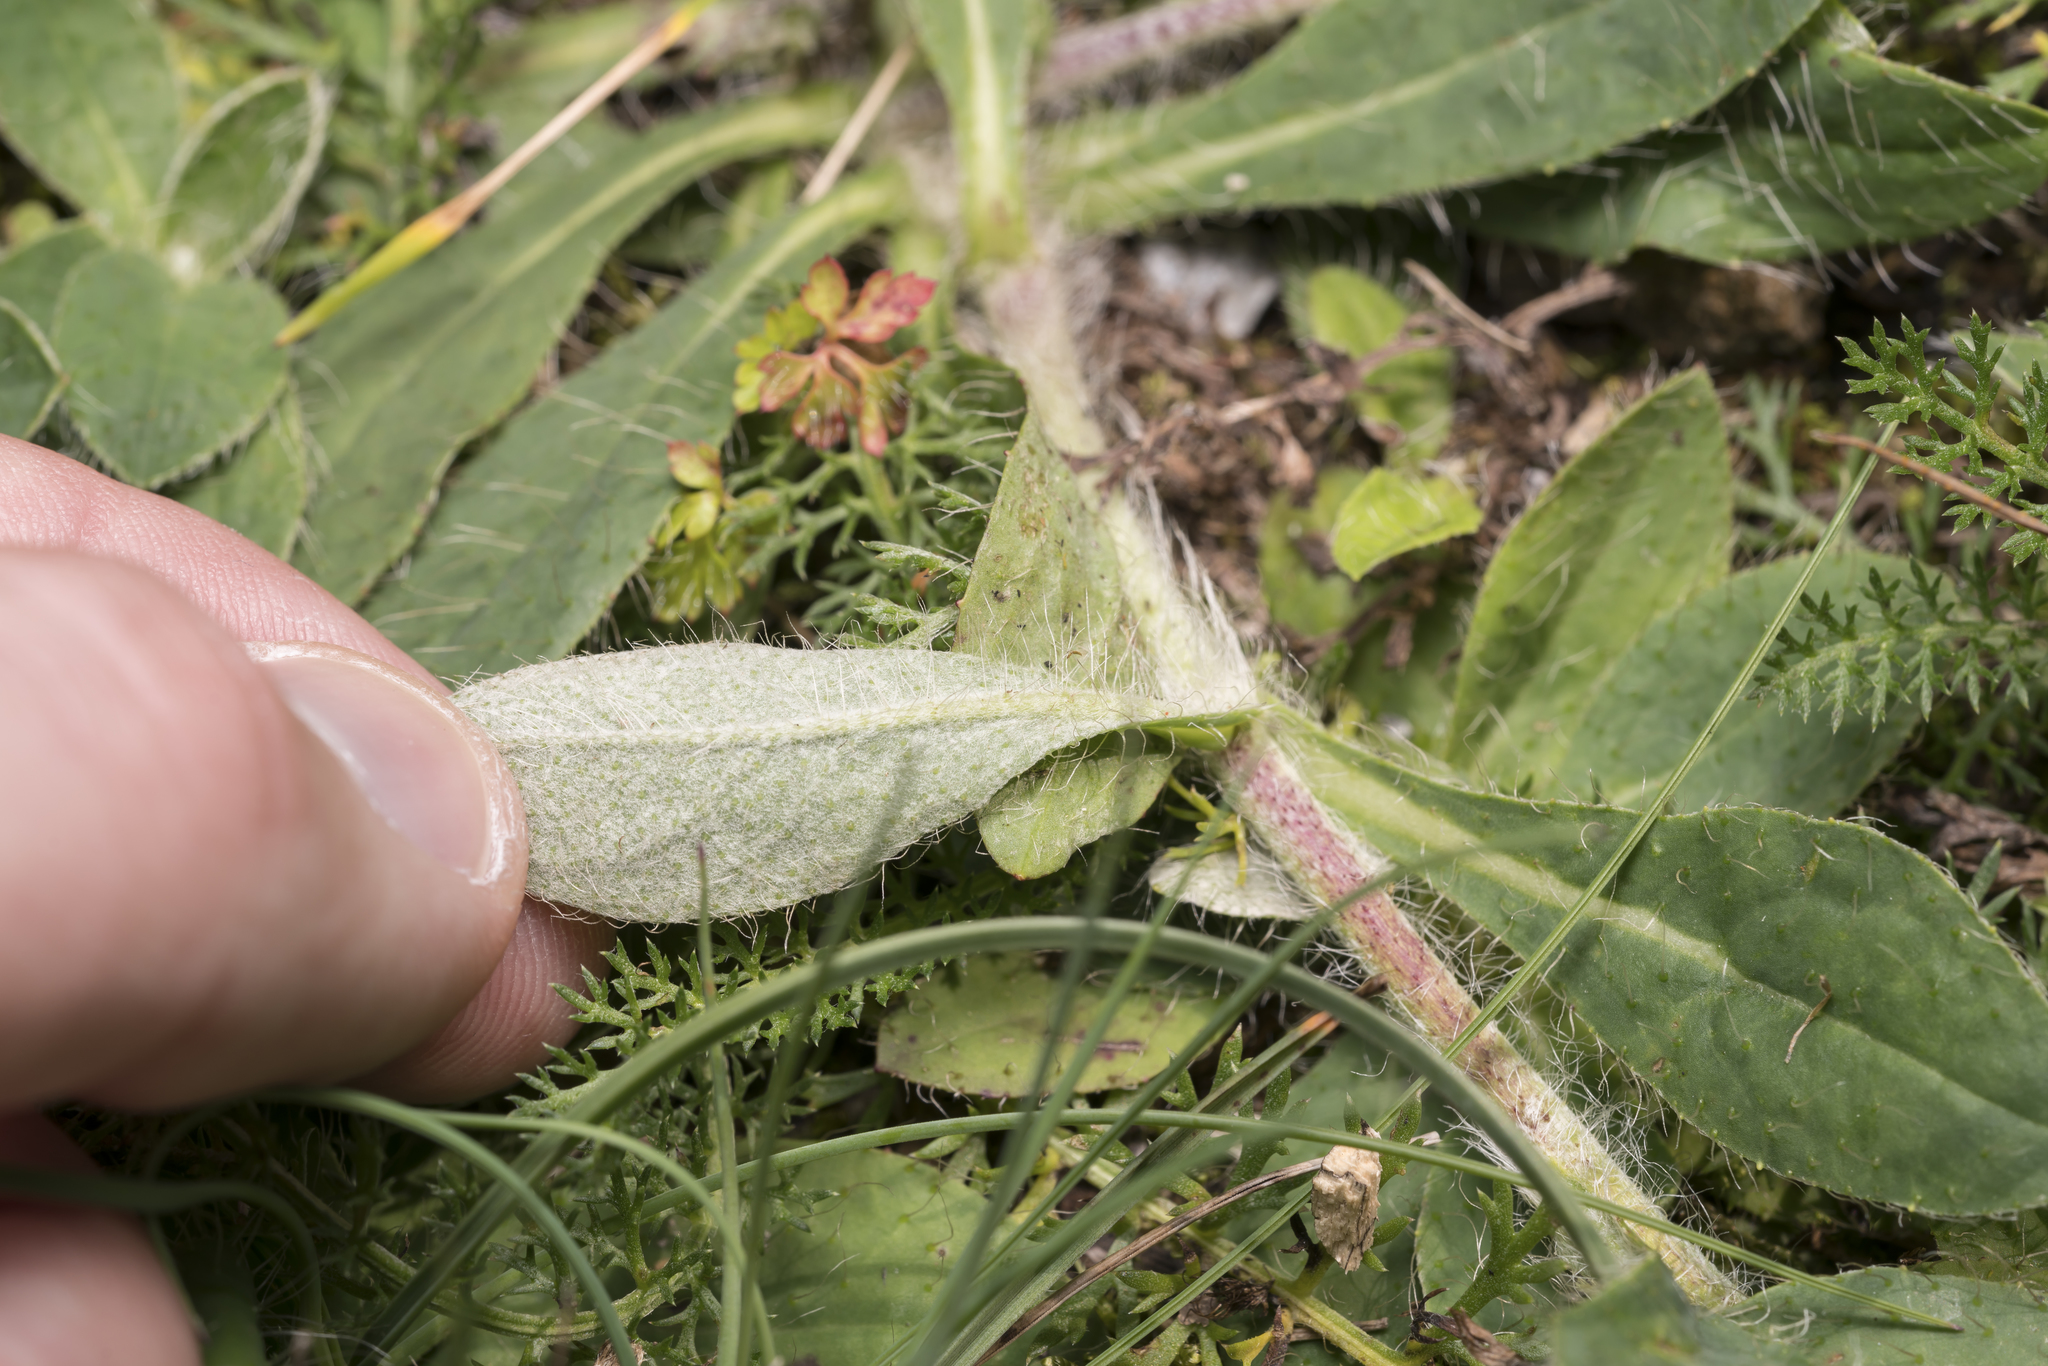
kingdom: Plantae
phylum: Tracheophyta
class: Magnoliopsida
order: Asterales
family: Asteraceae
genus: Pilosella
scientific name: Pilosella officinarum
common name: Mouse-ear hawkweed
